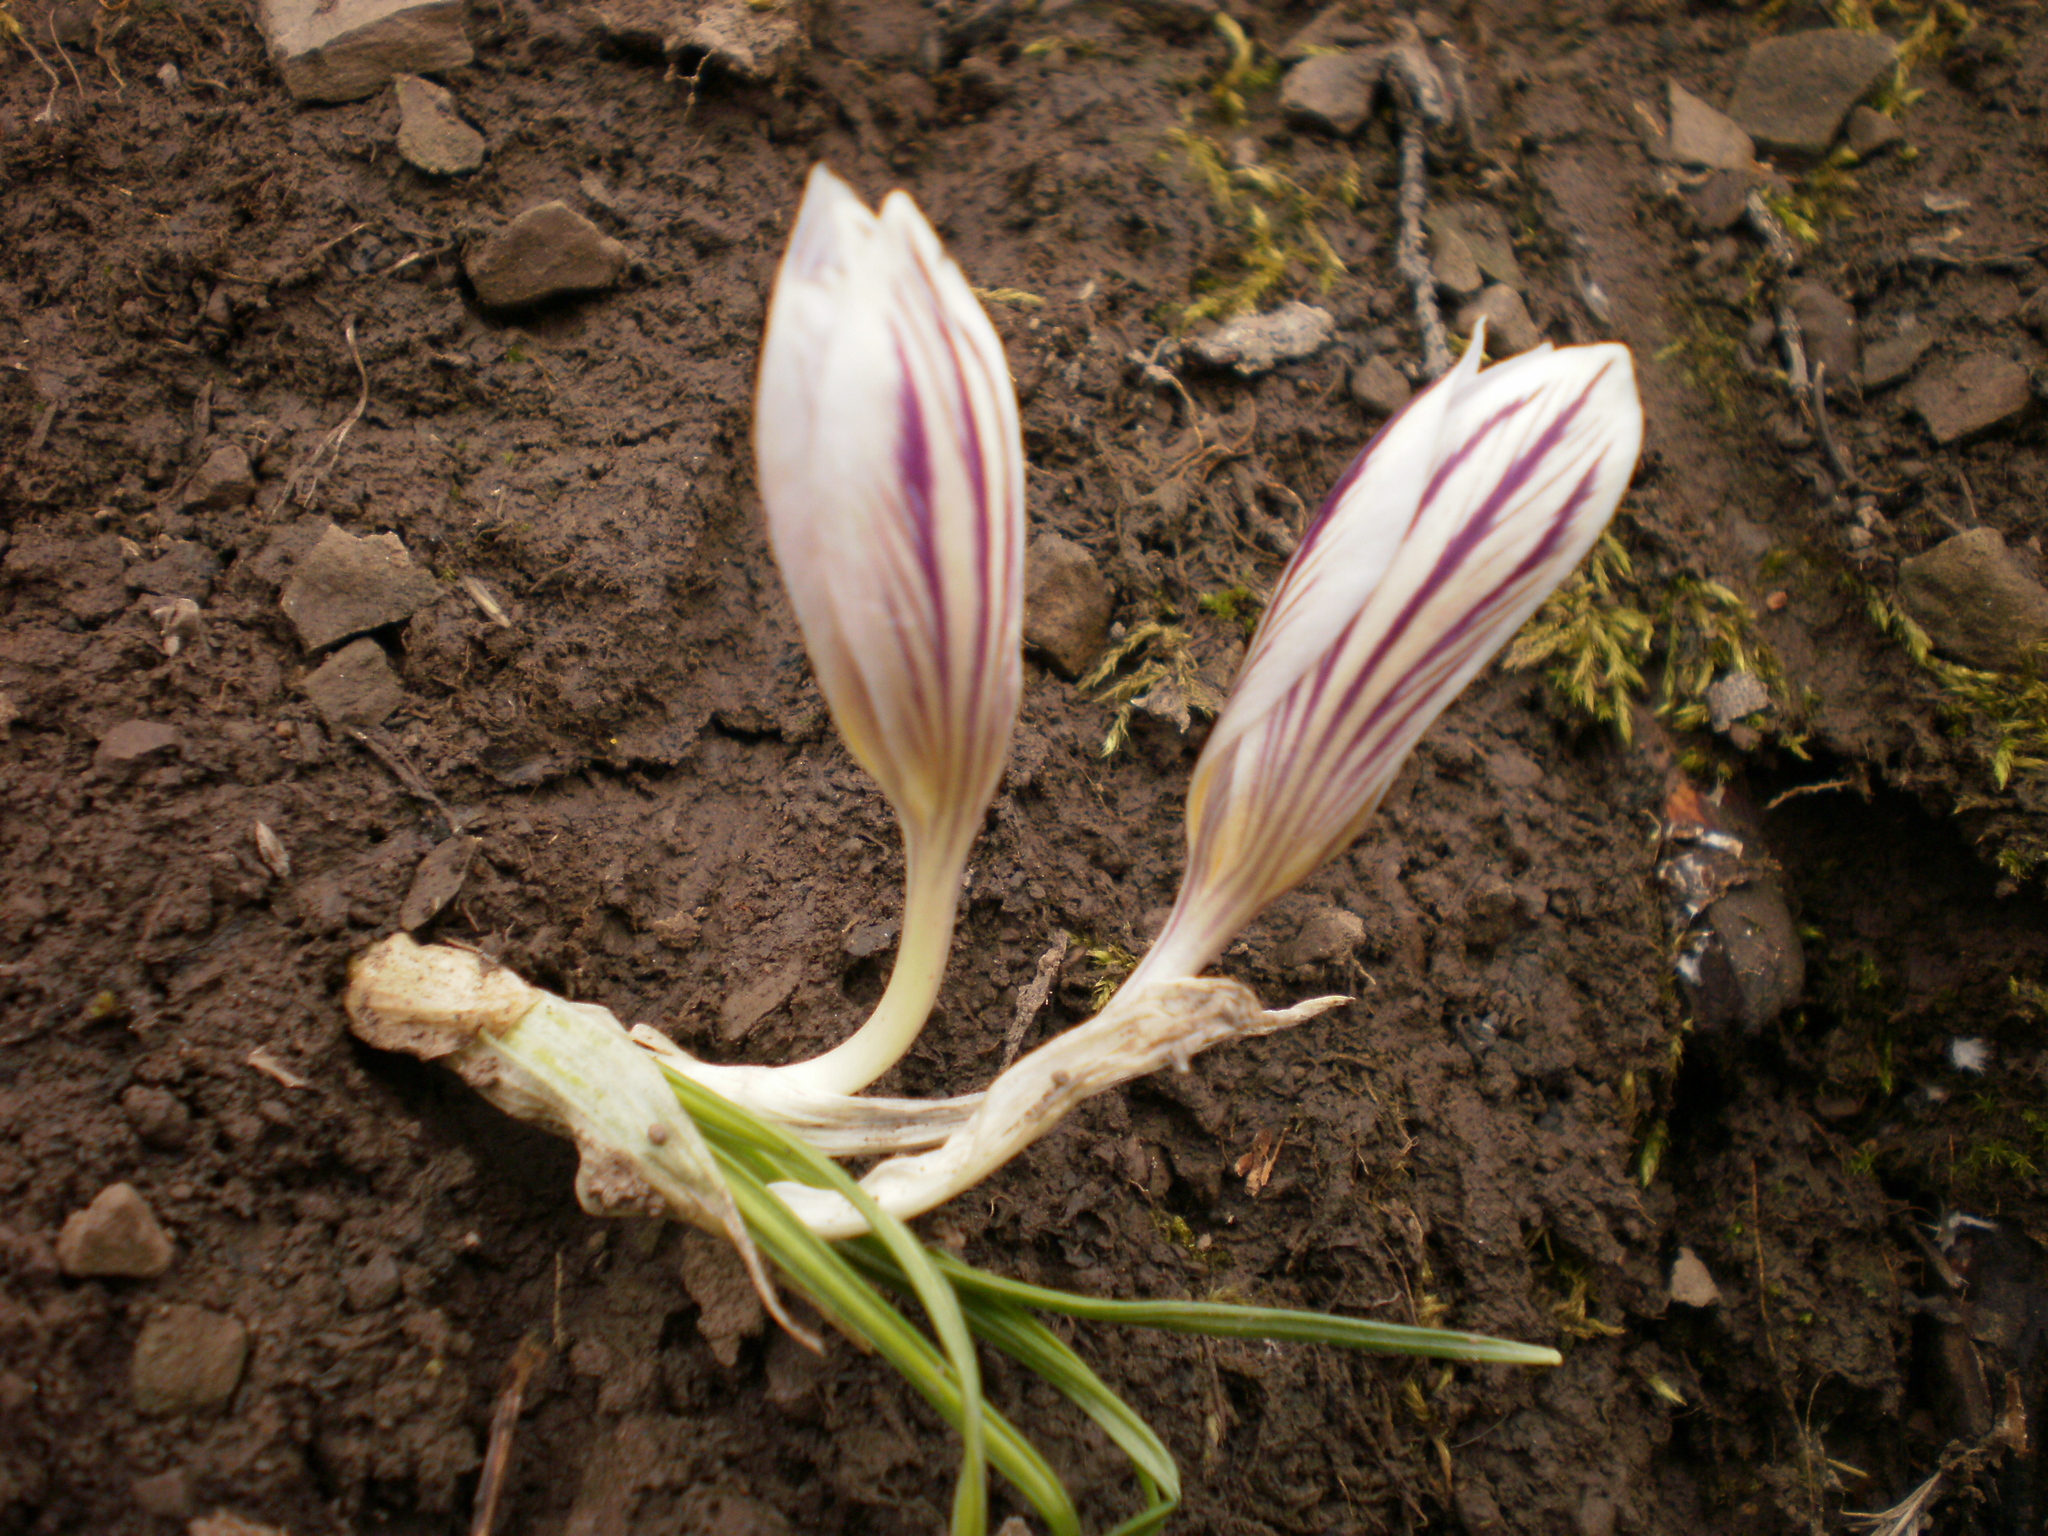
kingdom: Plantae
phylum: Tracheophyta
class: Liliopsida
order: Asparagales
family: Iridaceae
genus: Crocus
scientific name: Crocus reticulatus
